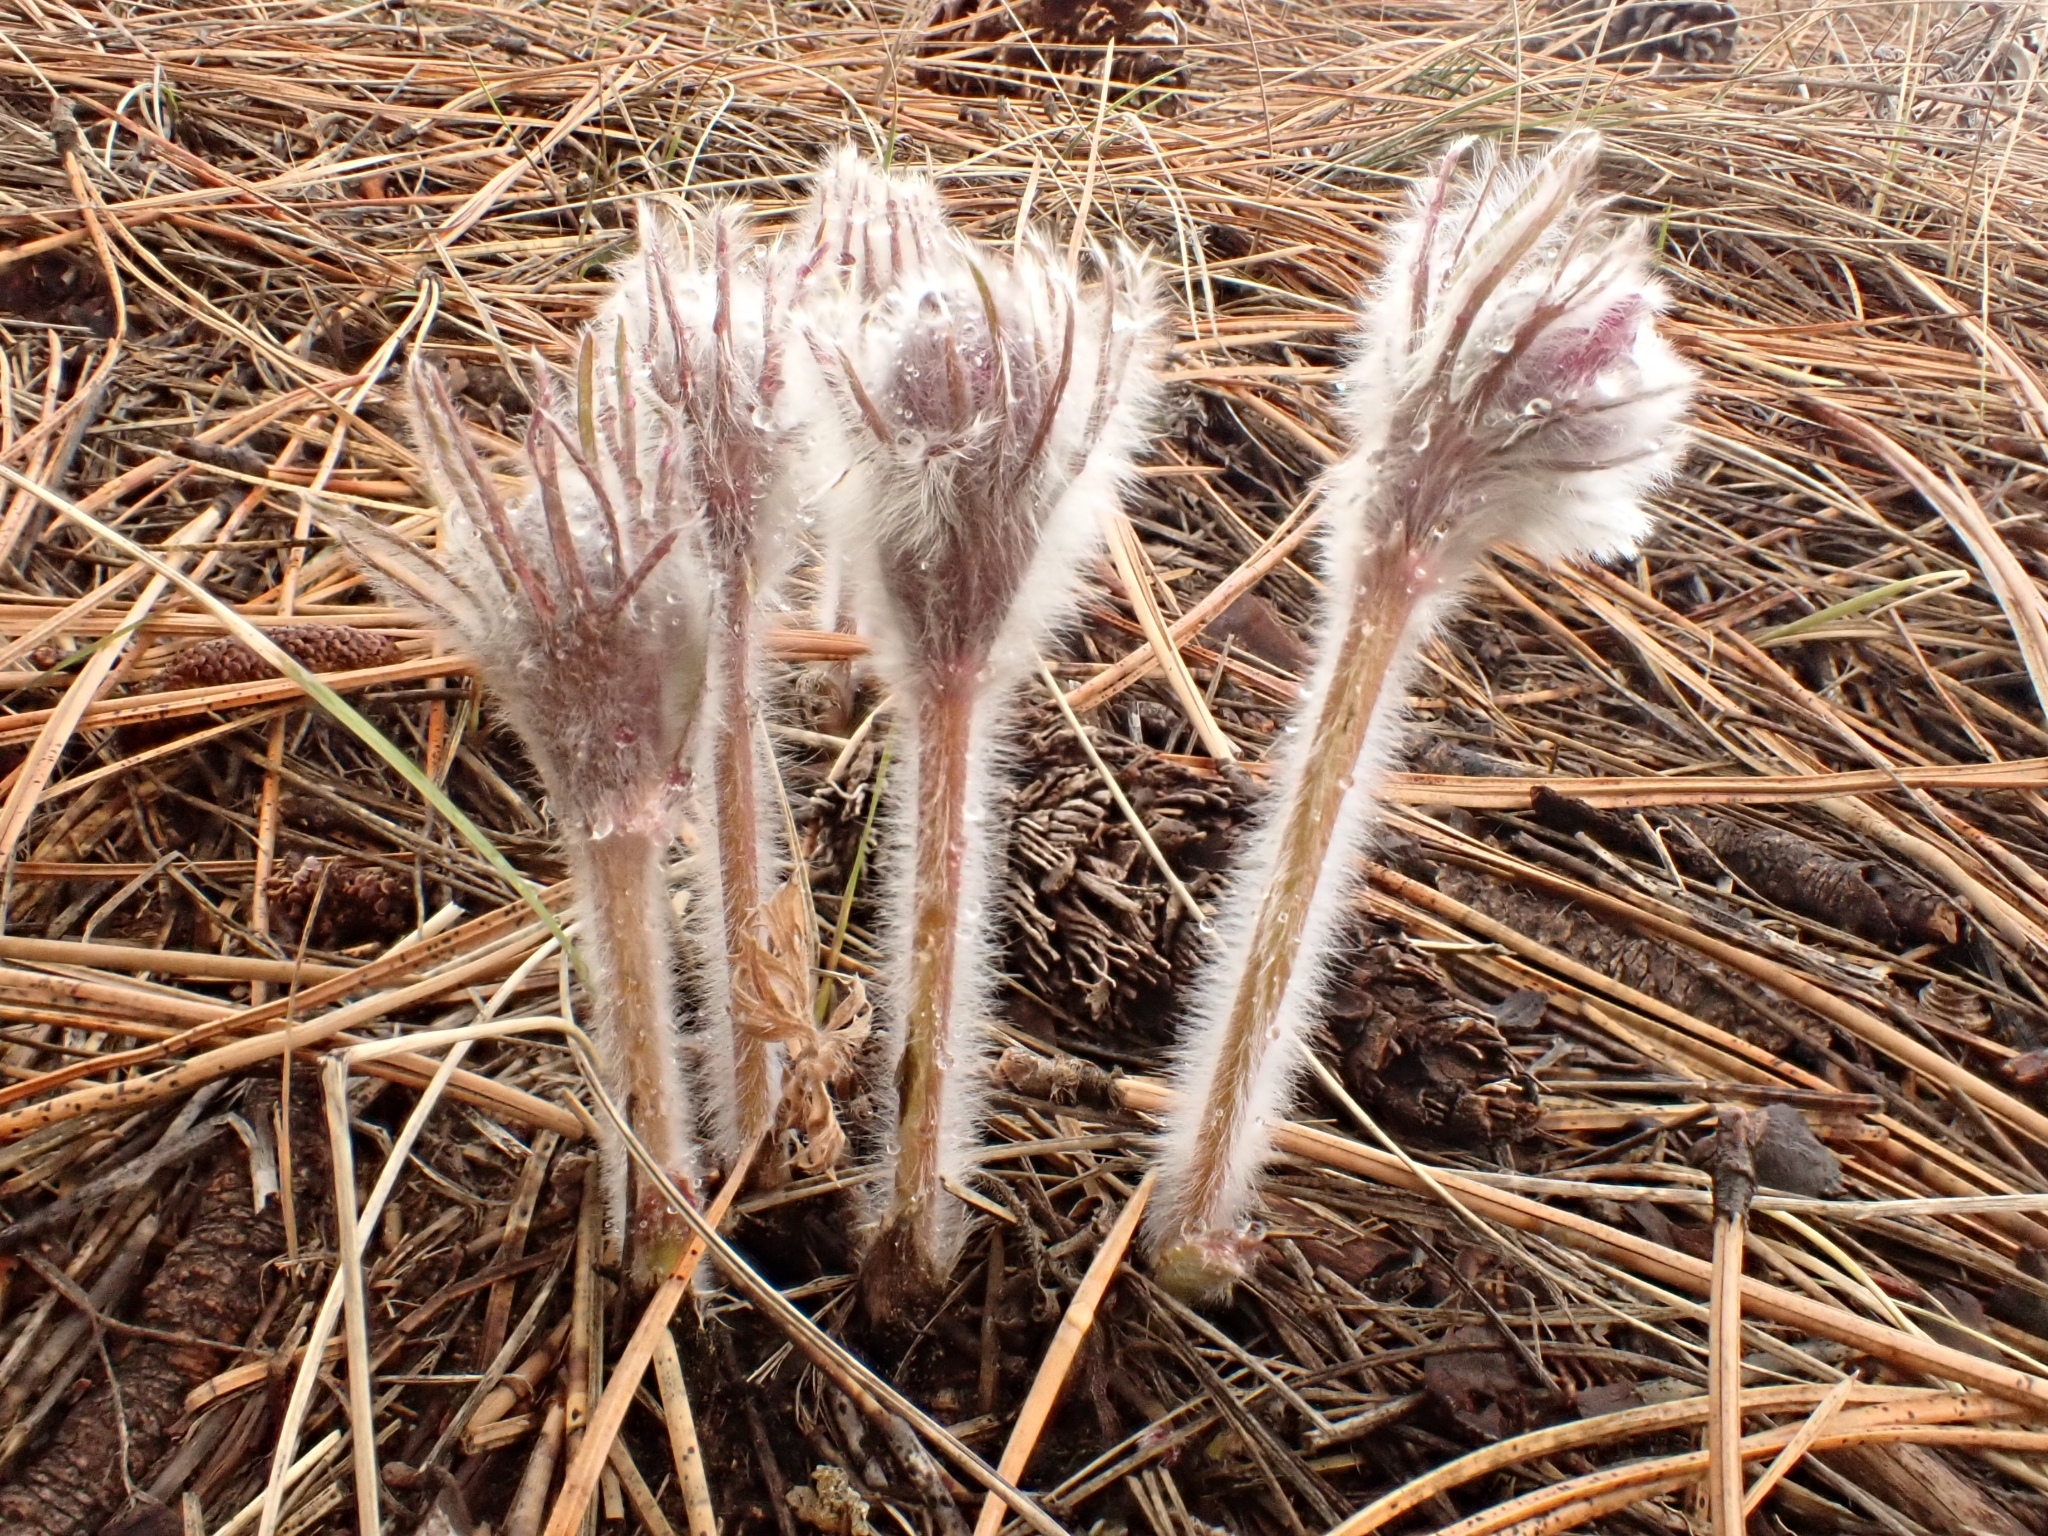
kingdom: Plantae
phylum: Tracheophyta
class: Magnoliopsida
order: Ranunculales
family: Ranunculaceae
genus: Pulsatilla
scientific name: Pulsatilla nuttalliana
